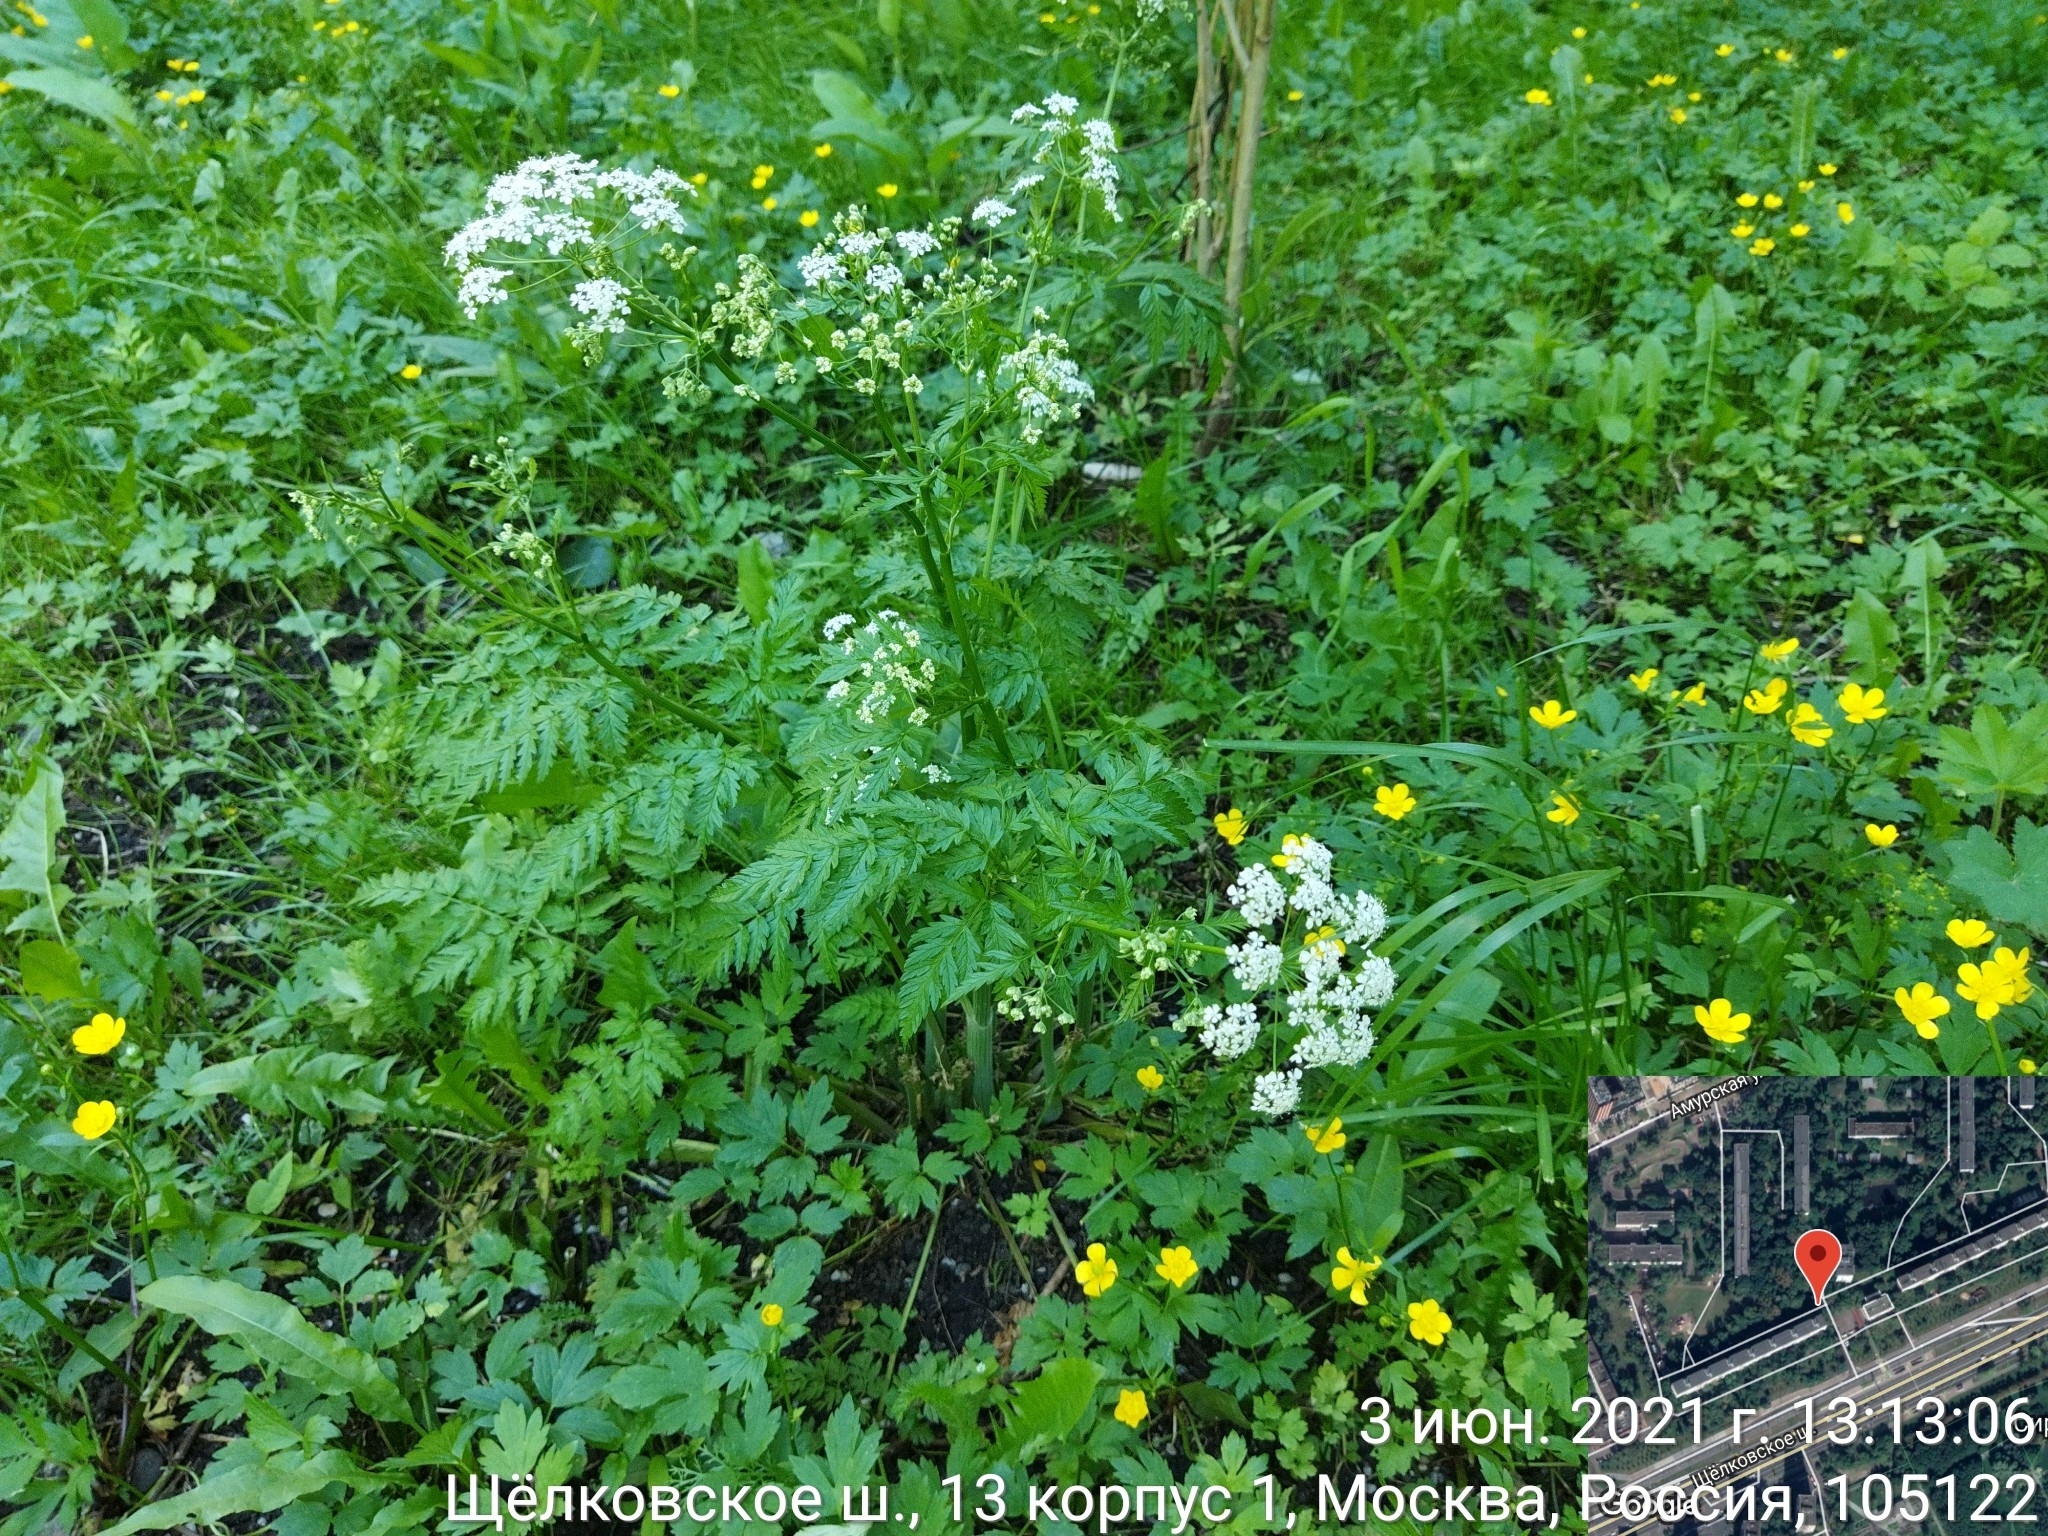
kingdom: Plantae
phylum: Tracheophyta
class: Magnoliopsida
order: Apiales
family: Apiaceae
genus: Anthriscus
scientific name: Anthriscus sylvestris
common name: Cow parsley
